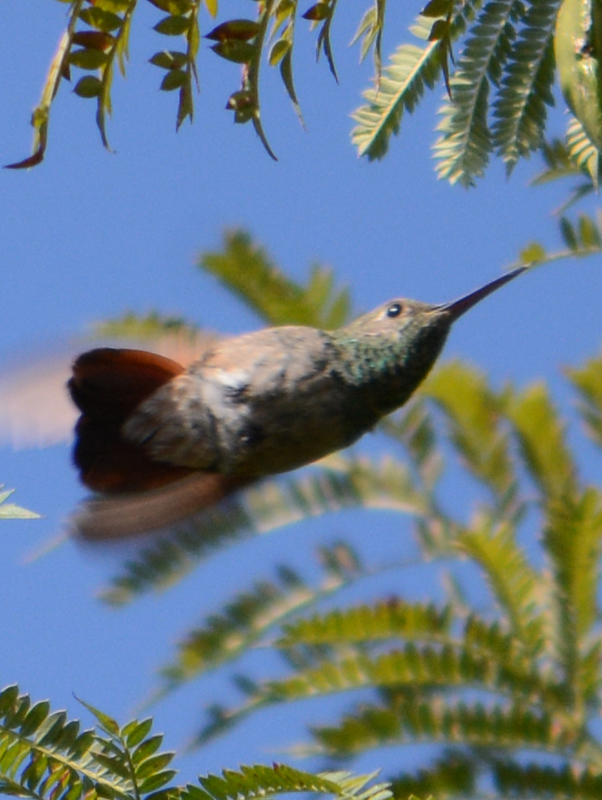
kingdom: Animalia
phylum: Chordata
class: Aves
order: Apodiformes
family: Trochilidae
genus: Saucerottia
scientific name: Saucerottia beryllina
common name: Berylline hummingbird
